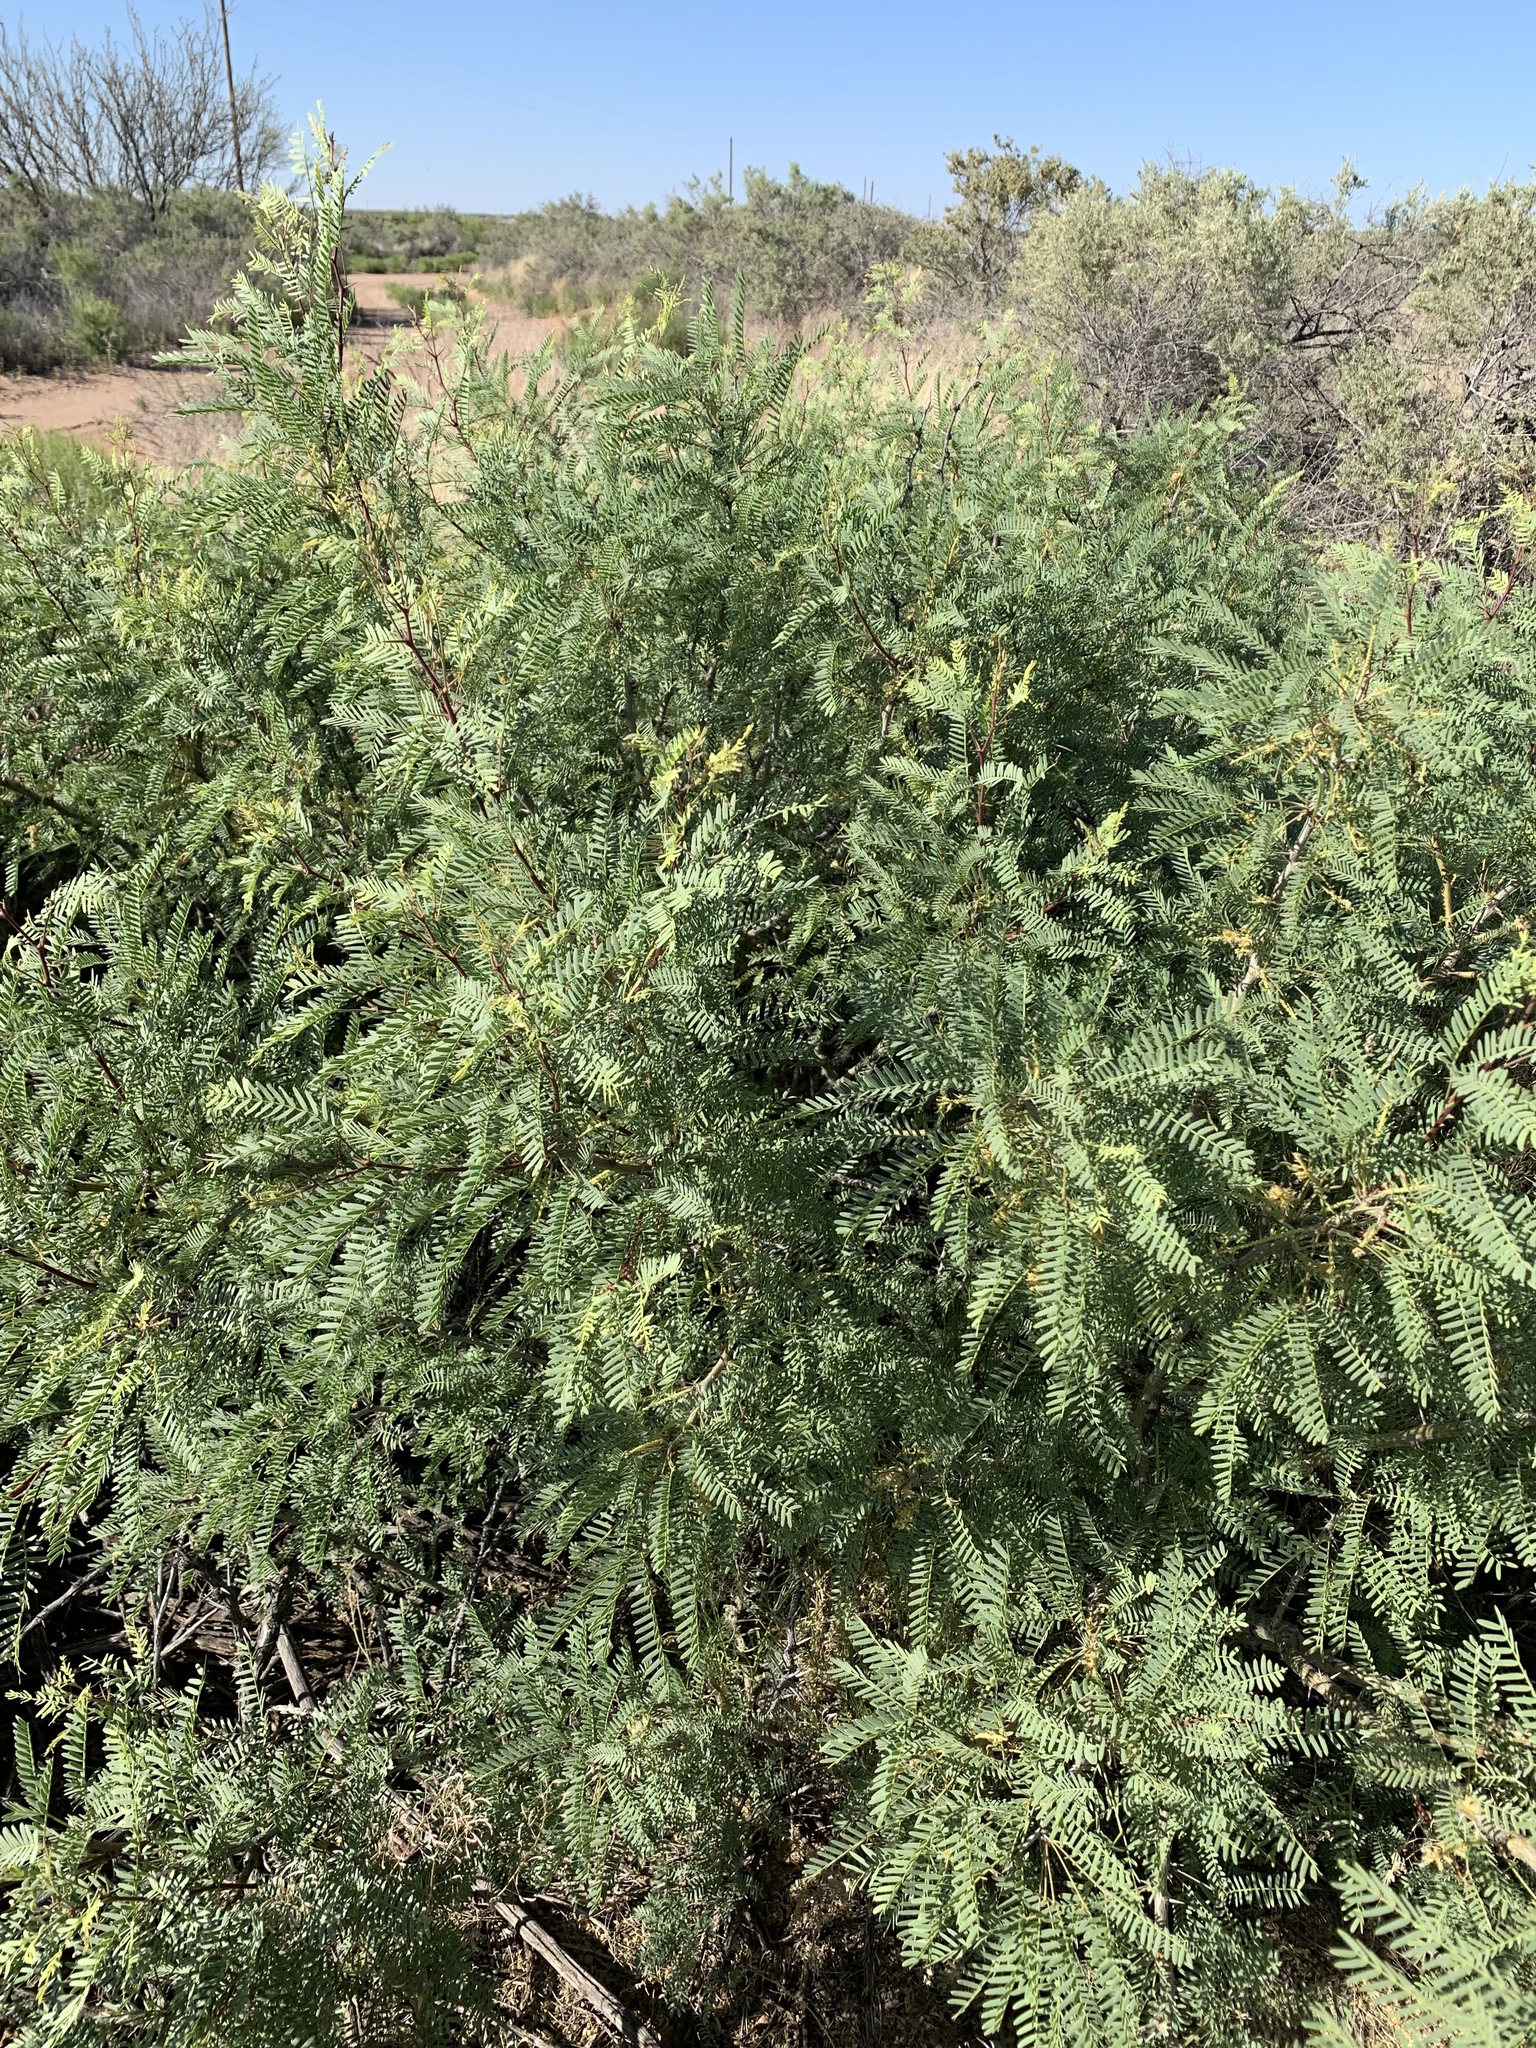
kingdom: Plantae
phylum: Tracheophyta
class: Magnoliopsida
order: Fabales
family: Fabaceae
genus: Prosopis
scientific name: Prosopis glandulosa
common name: Honey mesquite
